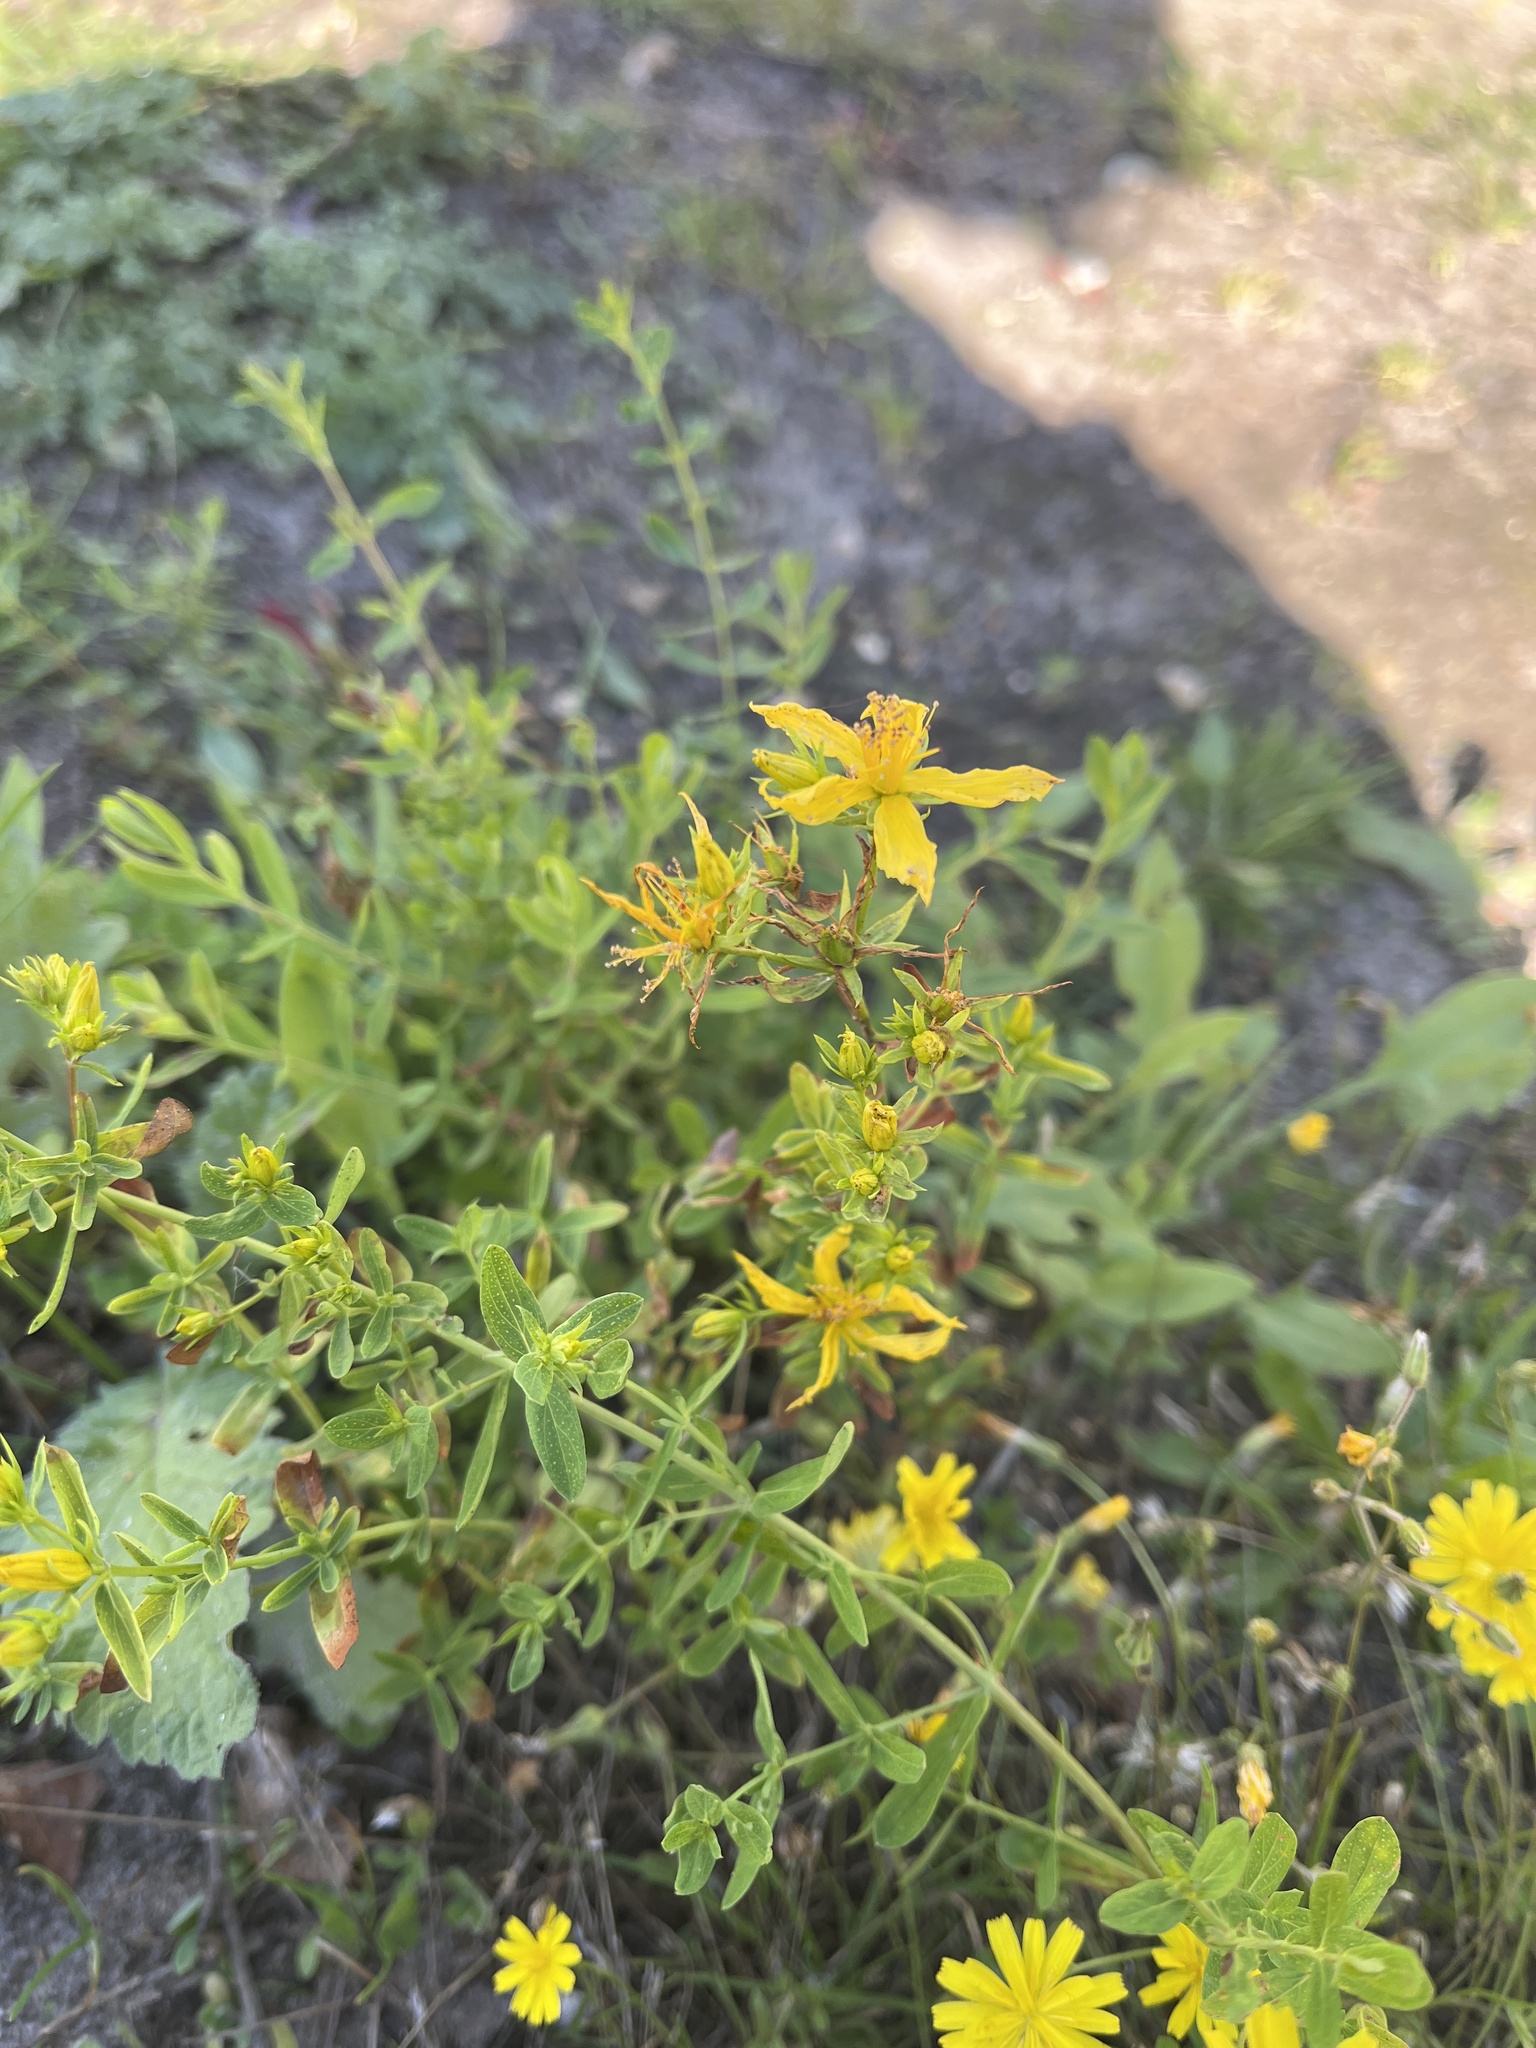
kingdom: Plantae
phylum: Tracheophyta
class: Magnoliopsida
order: Malpighiales
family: Hypericaceae
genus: Hypericum
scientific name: Hypericum perforatum
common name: Common st. johnswort
